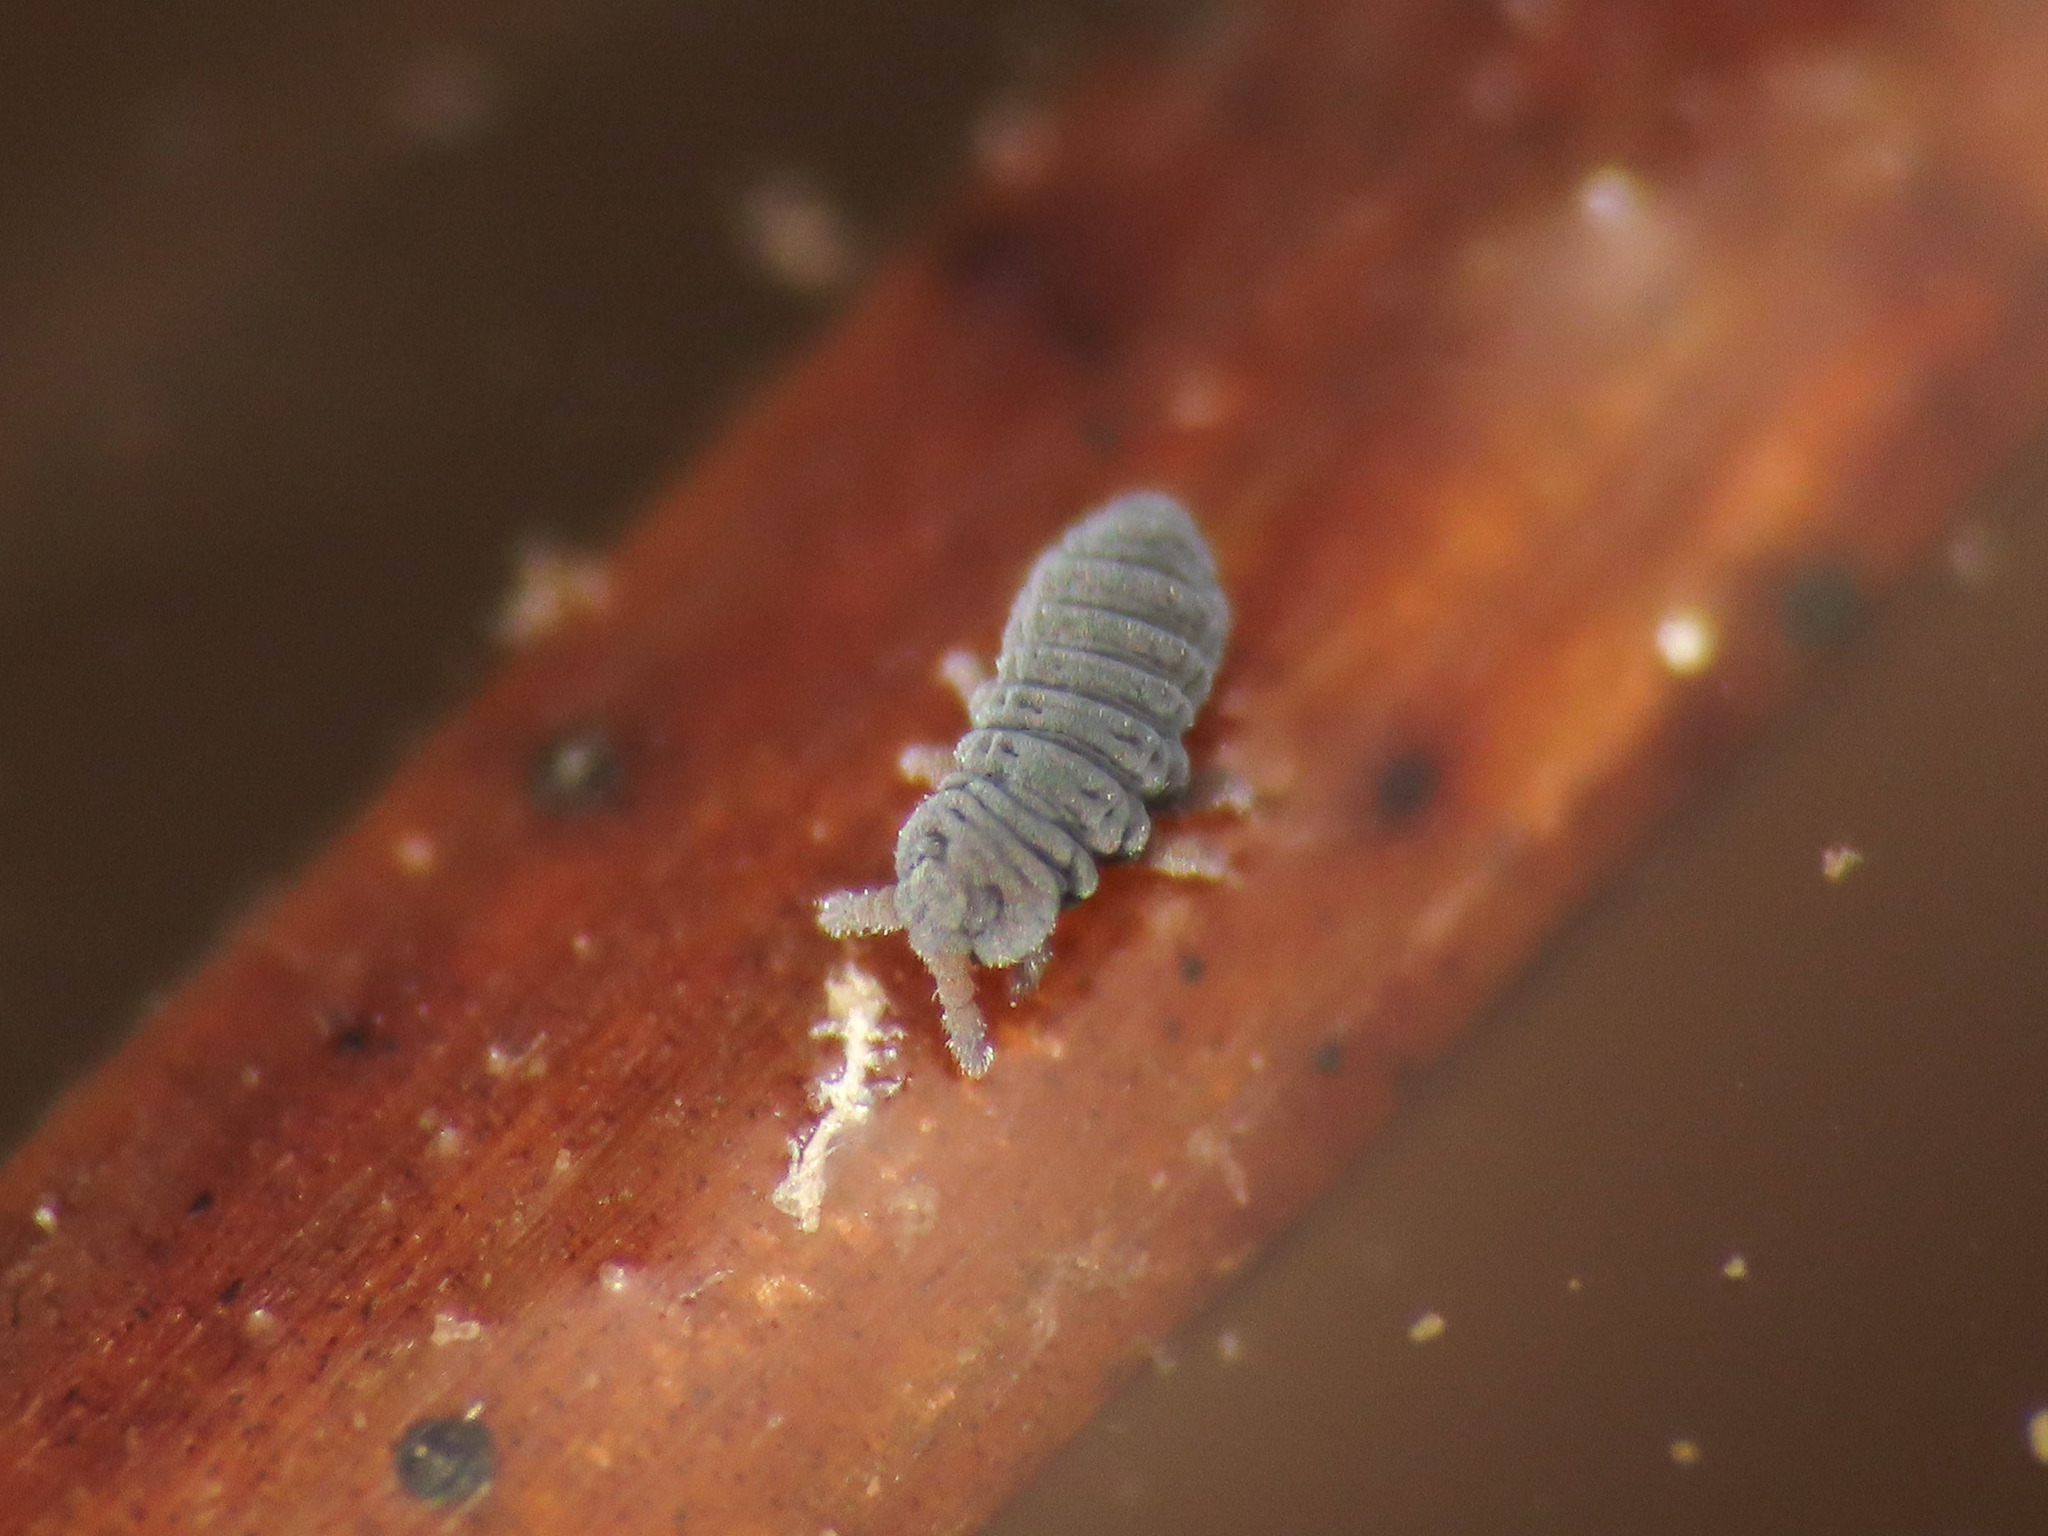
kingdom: Animalia
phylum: Arthropoda
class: Collembola
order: Poduromorpha
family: Poduridae
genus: Podura
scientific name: Podura aquatica
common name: Water springtail
